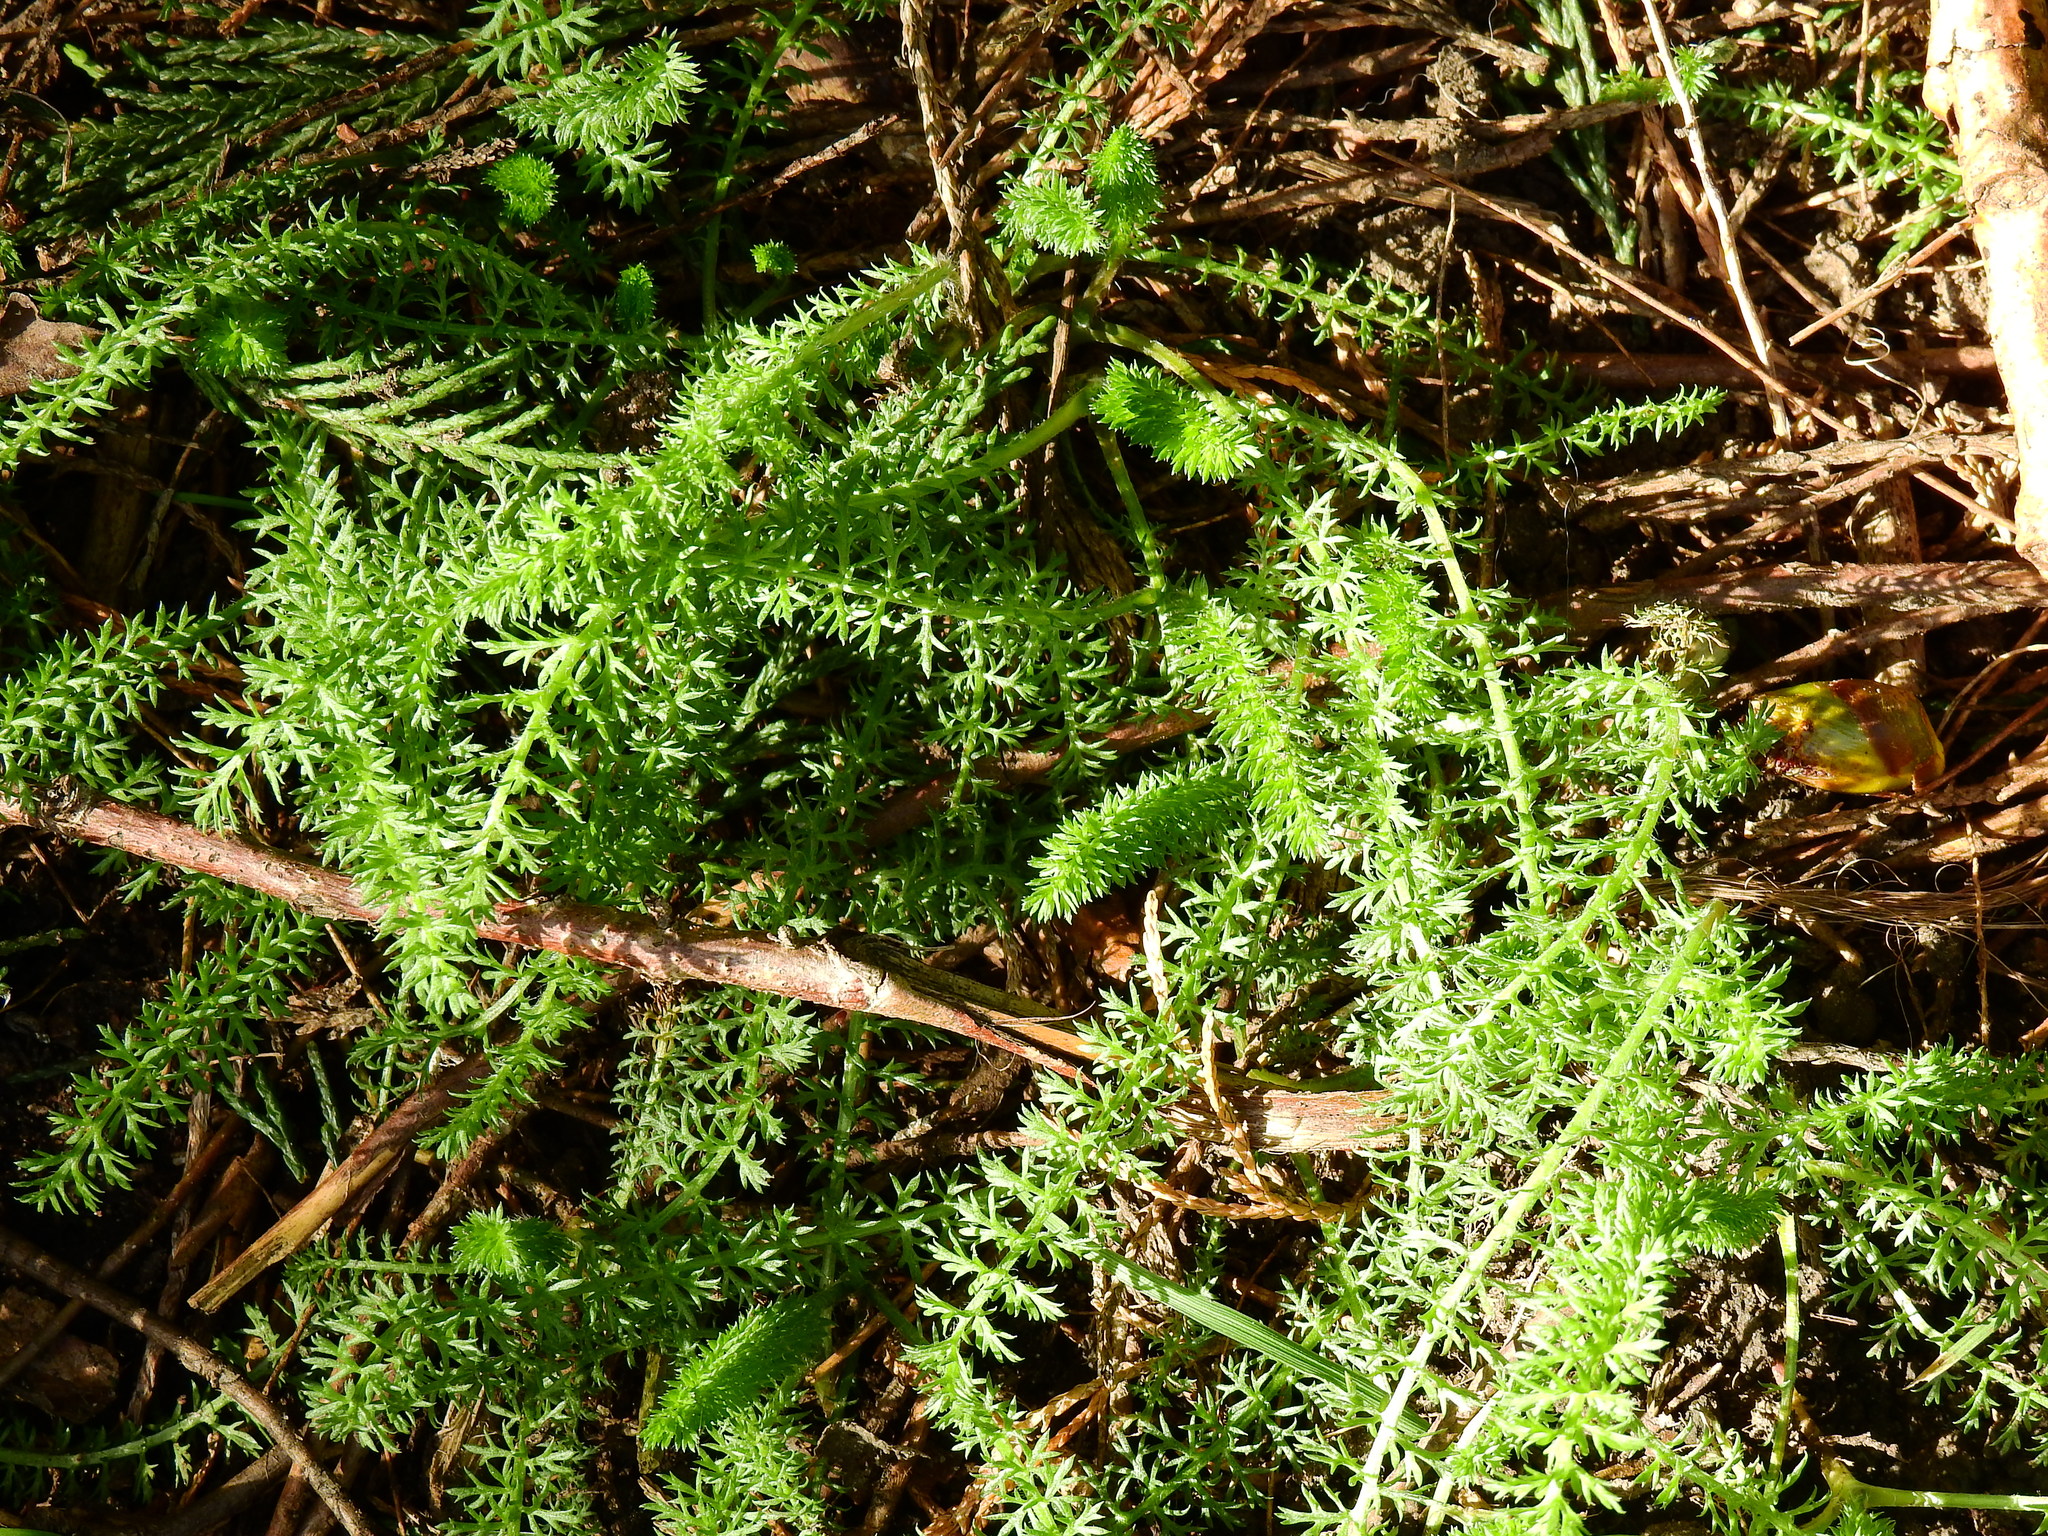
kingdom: Plantae
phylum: Tracheophyta
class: Magnoliopsida
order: Asterales
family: Asteraceae
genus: Achillea
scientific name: Achillea millefolium
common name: Yarrow
